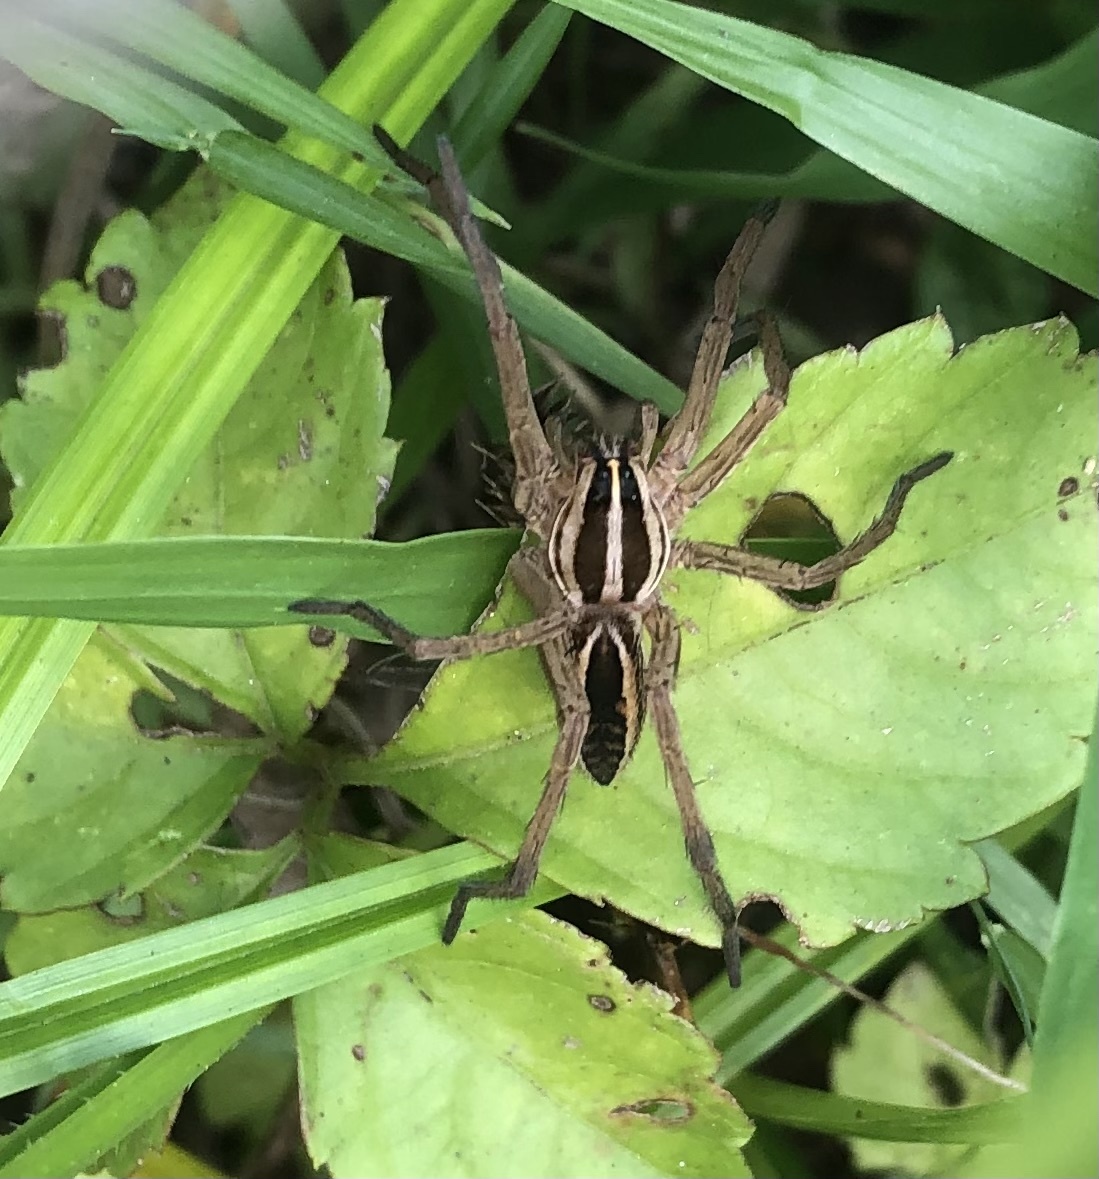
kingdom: Animalia
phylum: Arthropoda
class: Arachnida
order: Araneae
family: Lycosidae
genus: Rabidosa
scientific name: Rabidosa rabida
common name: Rabid wolf spider
